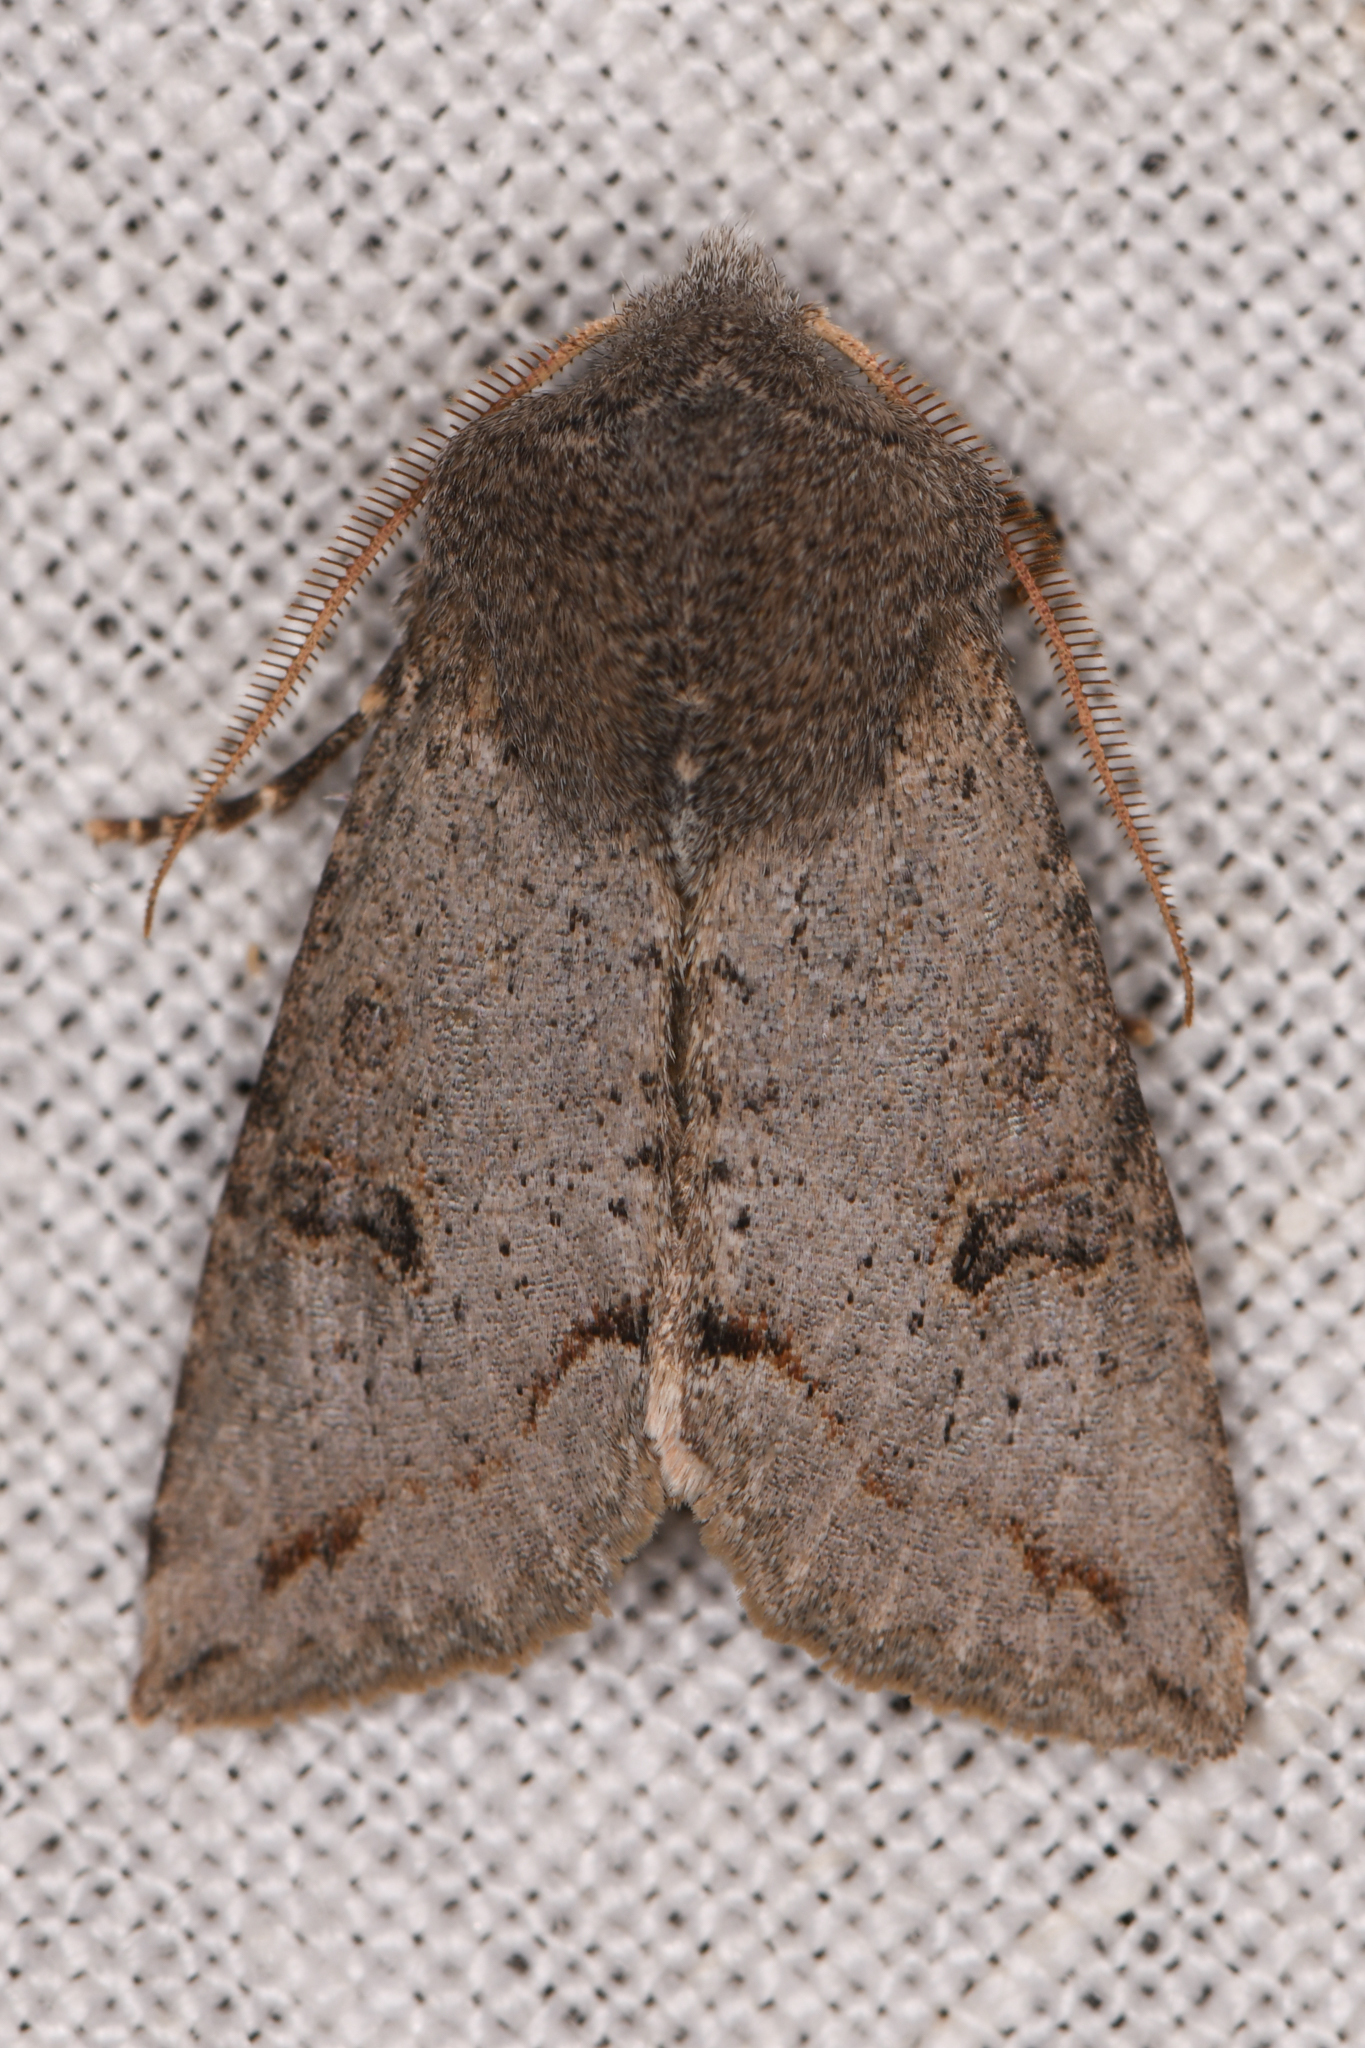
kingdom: Animalia
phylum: Arthropoda
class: Insecta
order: Lepidoptera
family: Noctuidae
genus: Orthosia
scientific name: Orthosia erythrolita
